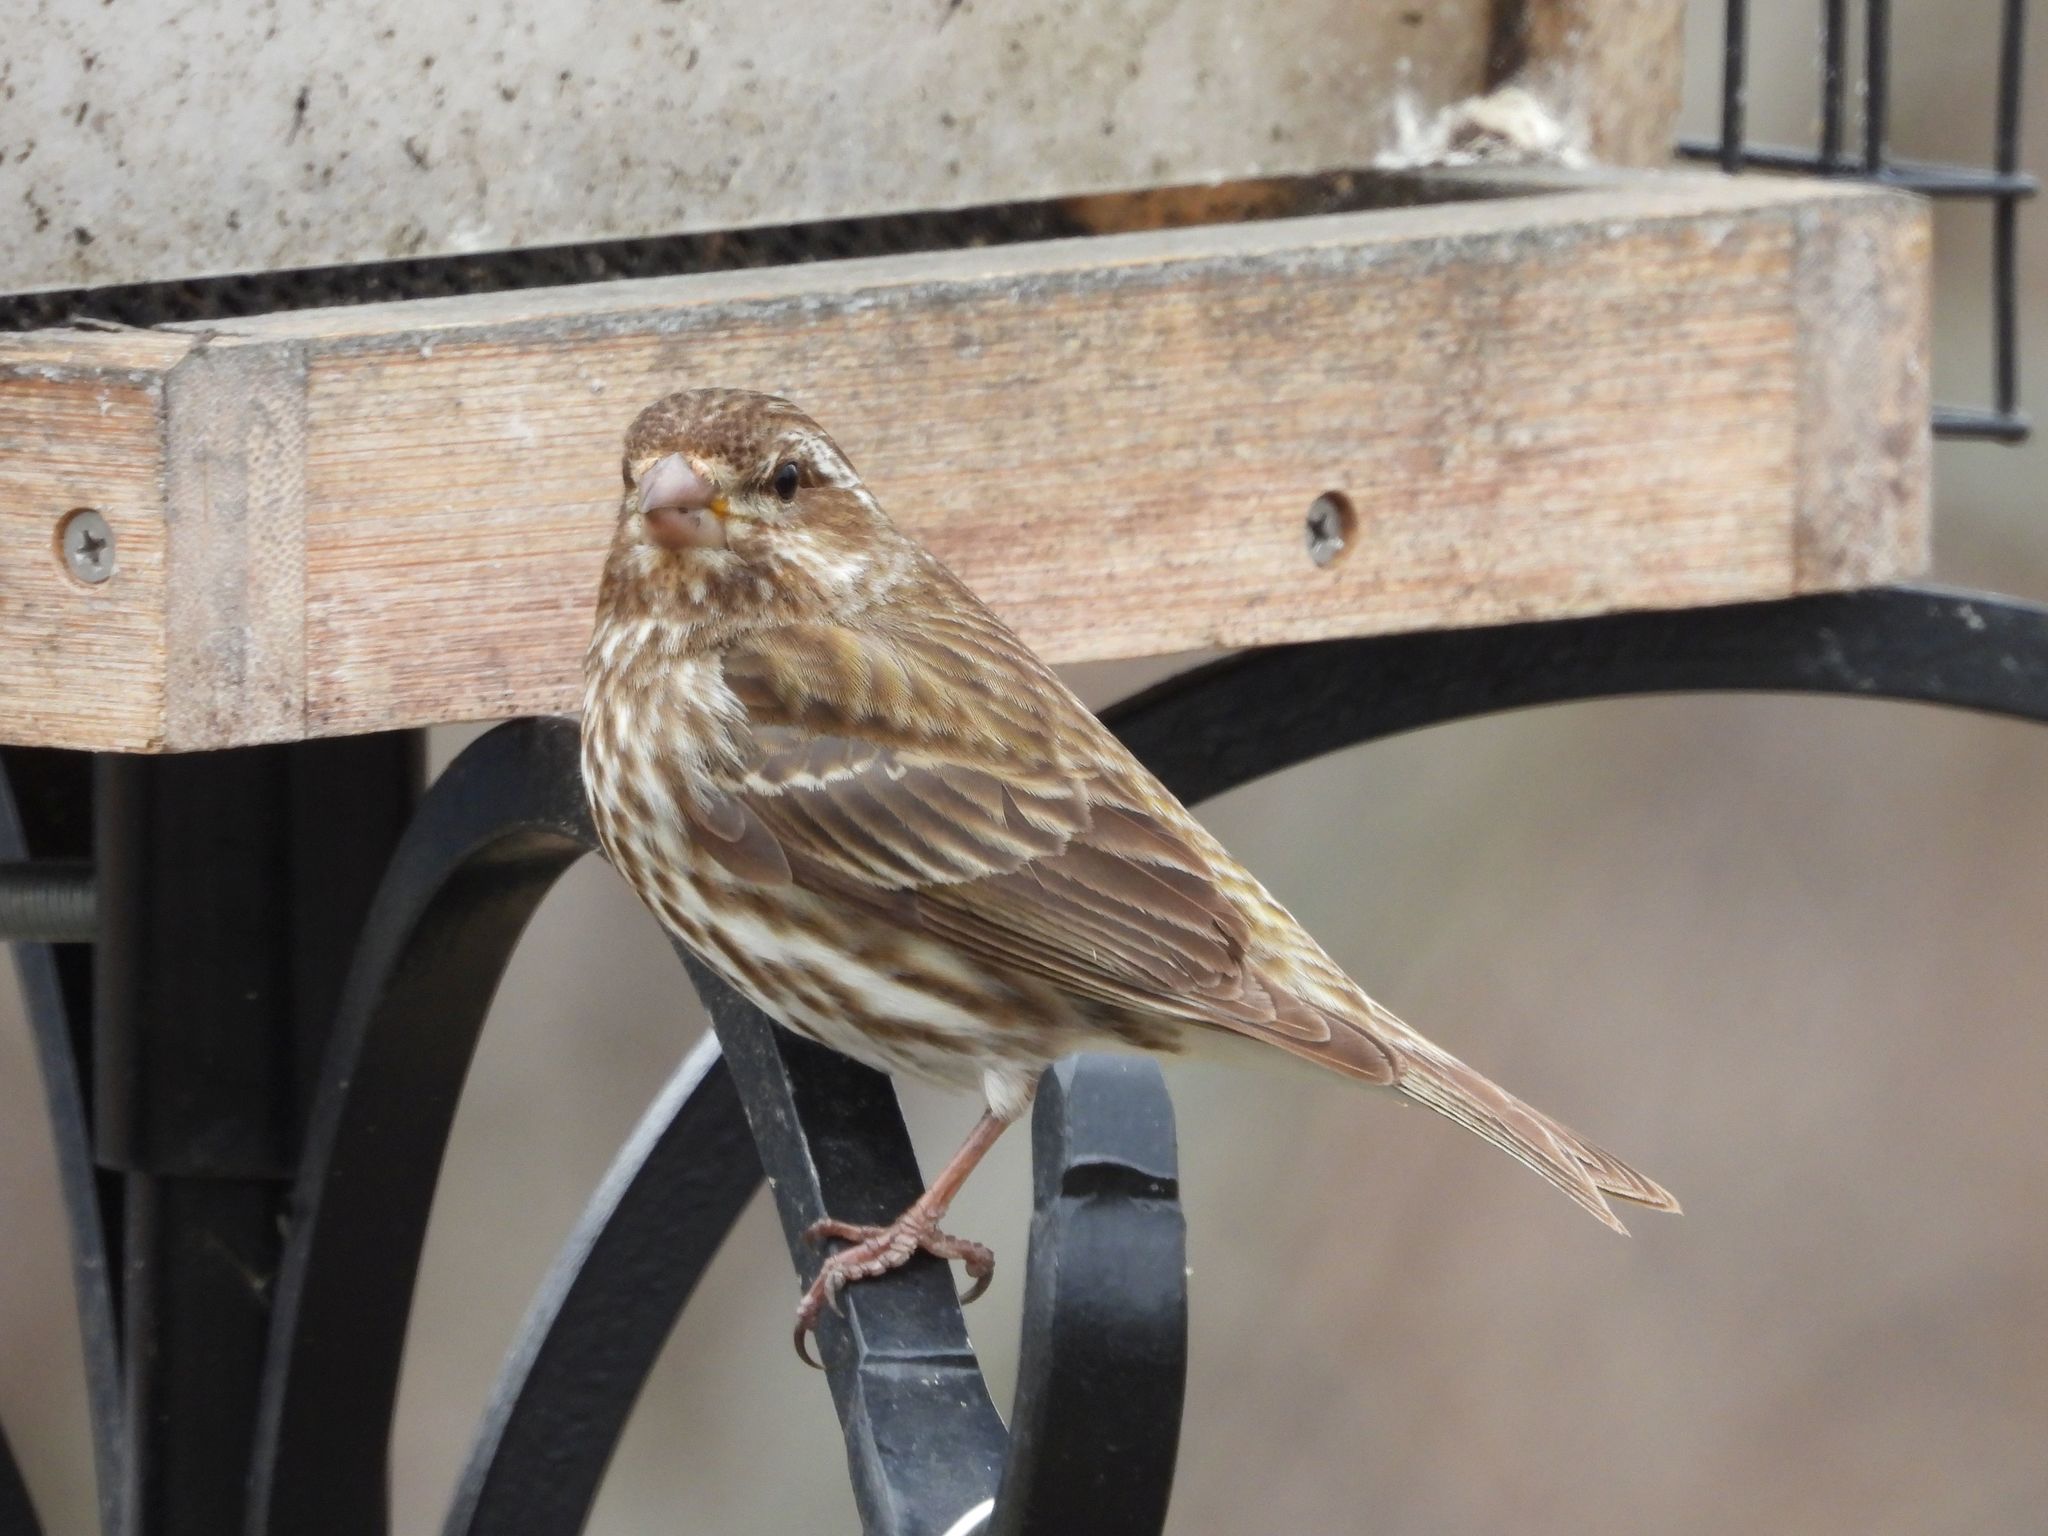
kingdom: Animalia
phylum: Chordata
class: Aves
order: Passeriformes
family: Fringillidae
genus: Haemorhous
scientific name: Haemorhous purpureus
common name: Purple finch
